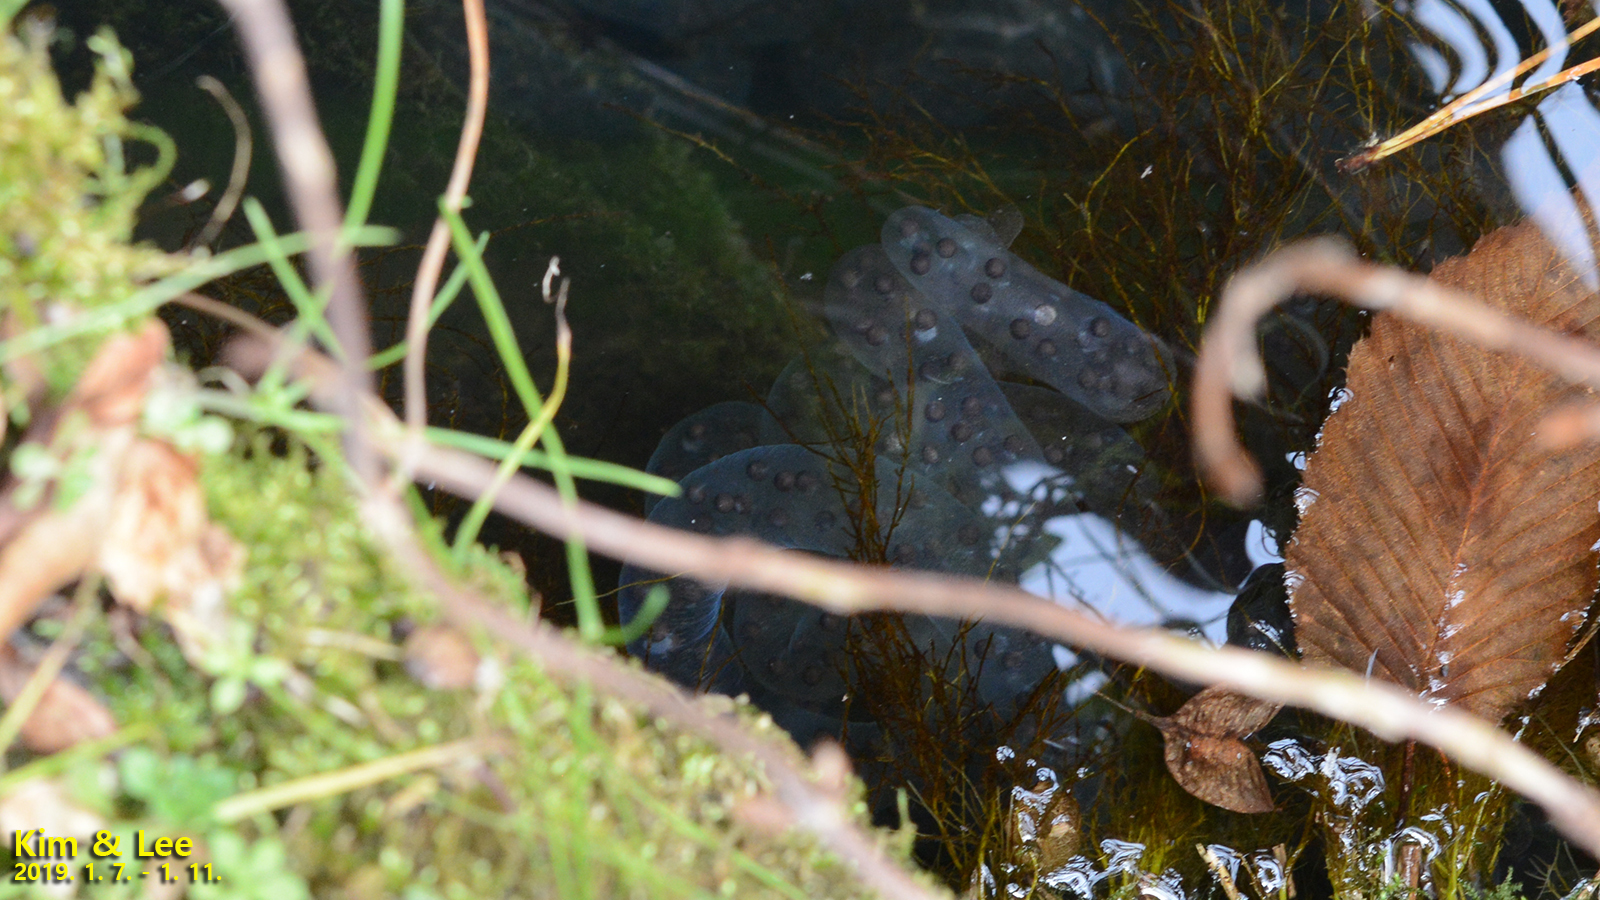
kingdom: Animalia
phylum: Chordata
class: Amphibia
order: Caudata
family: Hynobiidae
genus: Hynobius
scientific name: Hynobius quelpaertensis
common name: Cheju salamander
